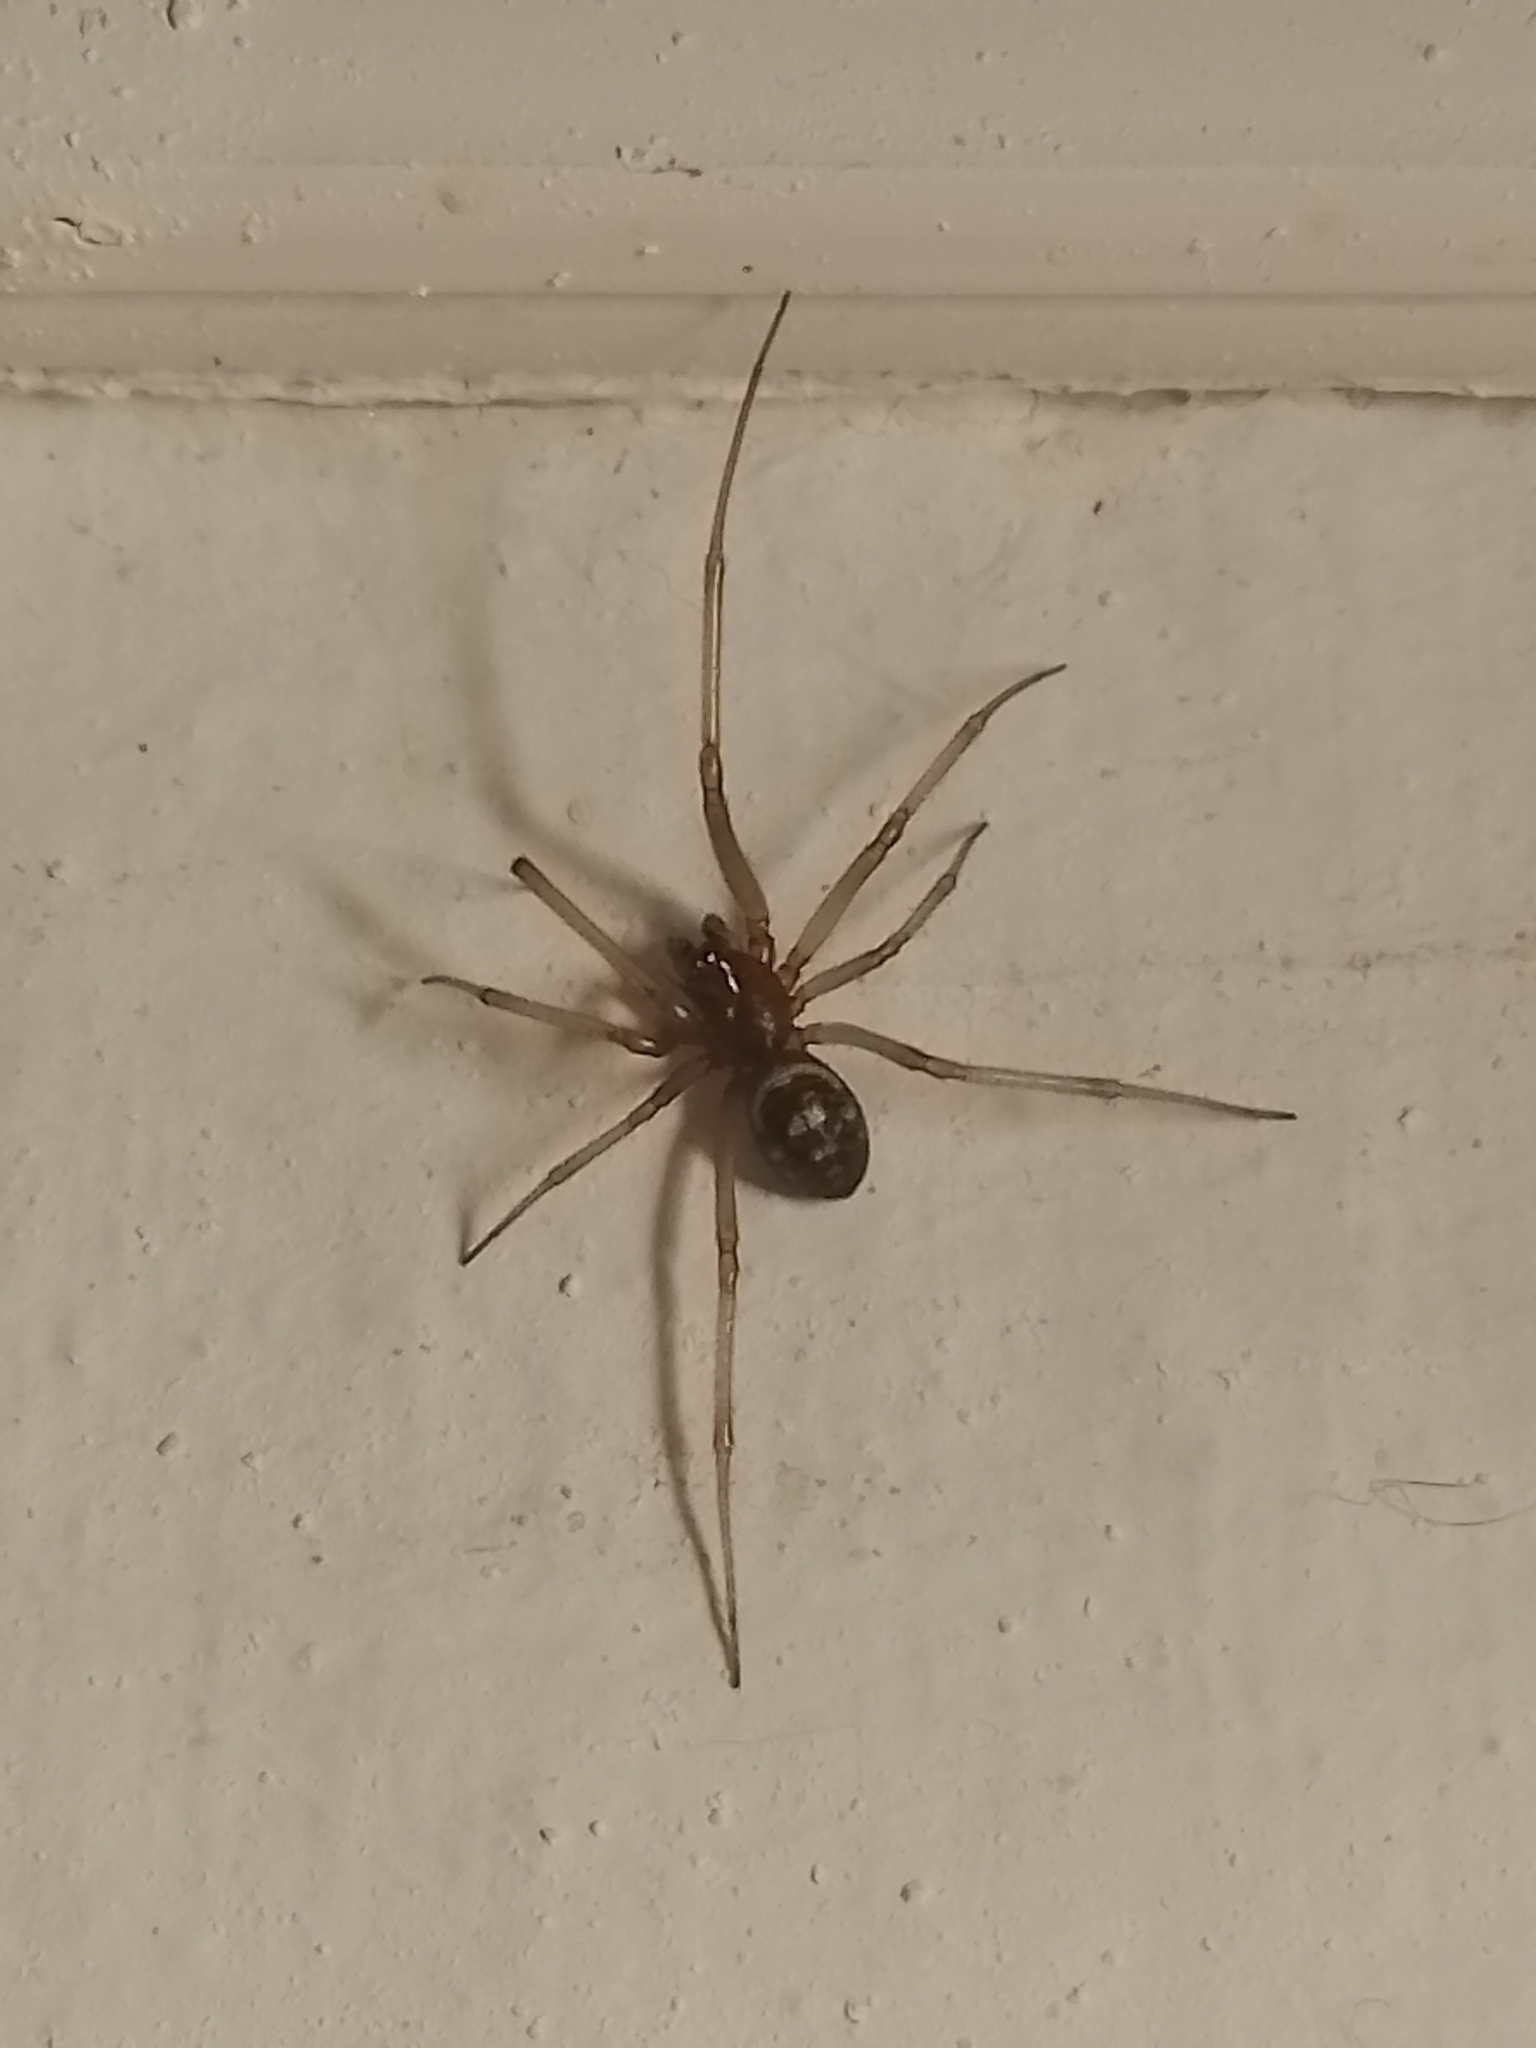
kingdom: Animalia
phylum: Arthropoda
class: Arachnida
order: Araneae
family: Theridiidae
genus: Steatoda
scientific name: Steatoda grossa
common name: False black widow
